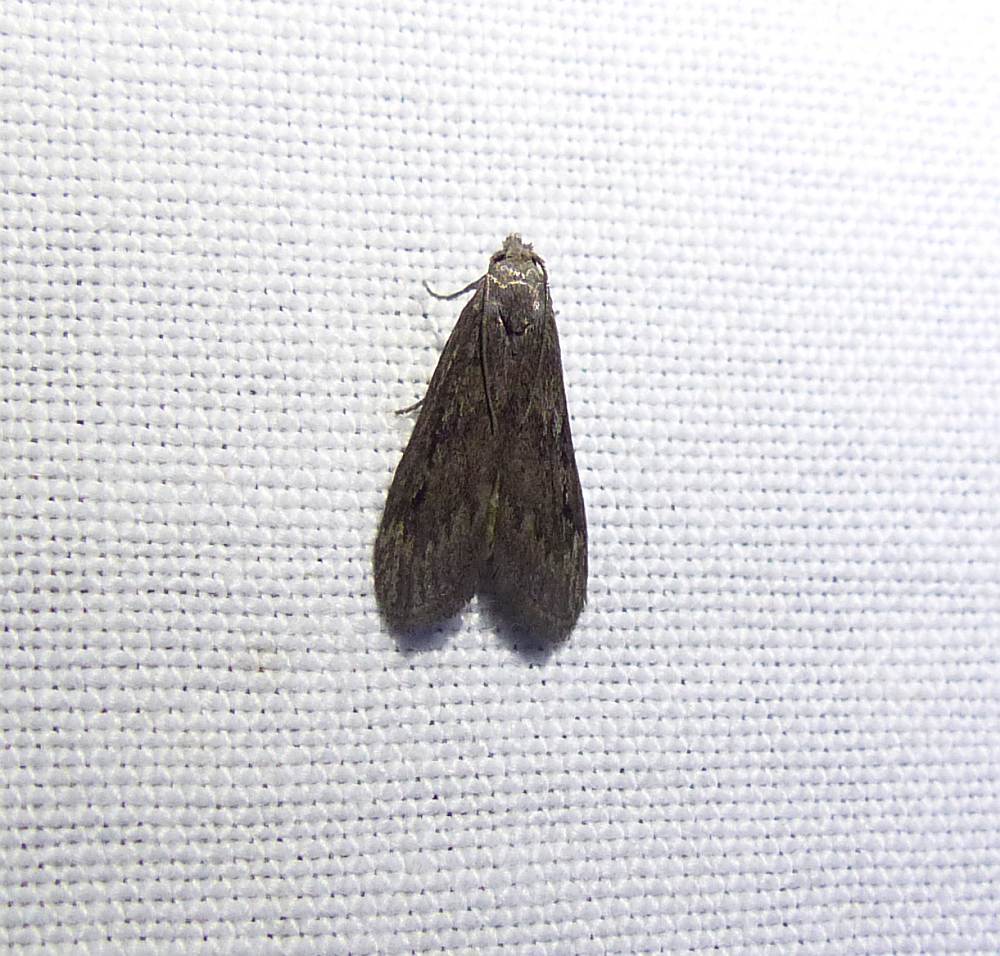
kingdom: Animalia
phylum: Arthropoda
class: Insecta
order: Lepidoptera
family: Pyralidae
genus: Aphomia
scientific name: Aphomia sociella
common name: Bee moth
